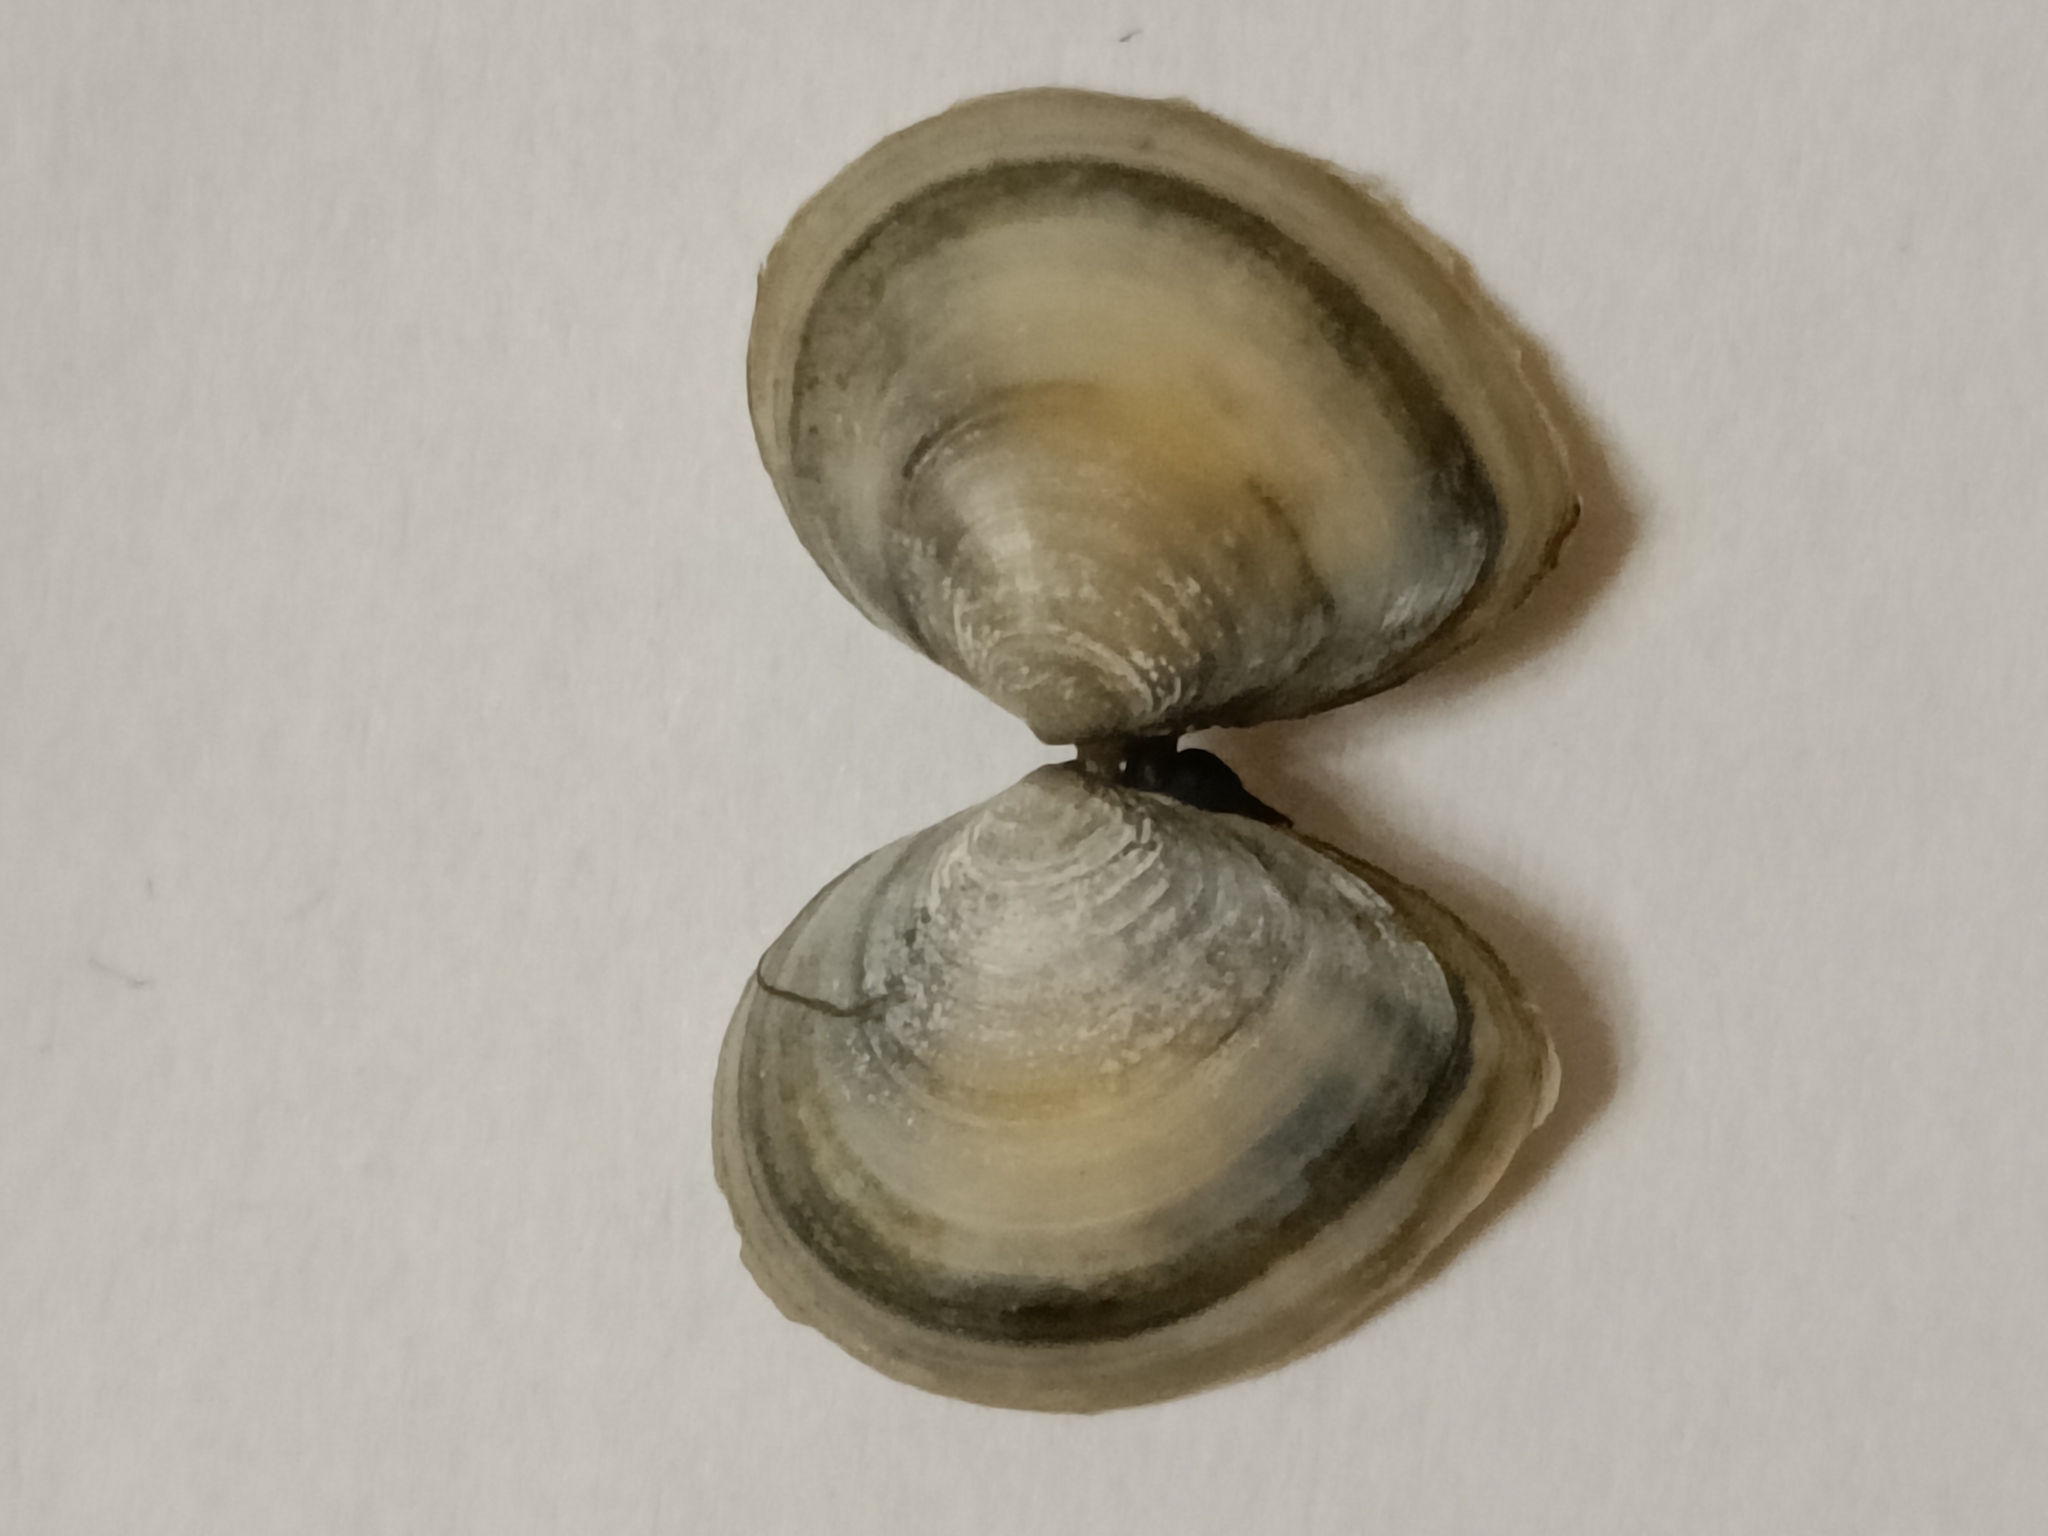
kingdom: Animalia
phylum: Mollusca
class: Bivalvia
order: Cardiida
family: Tellinidae
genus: Macoma
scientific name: Macoma balthica
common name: Baltic tellin
